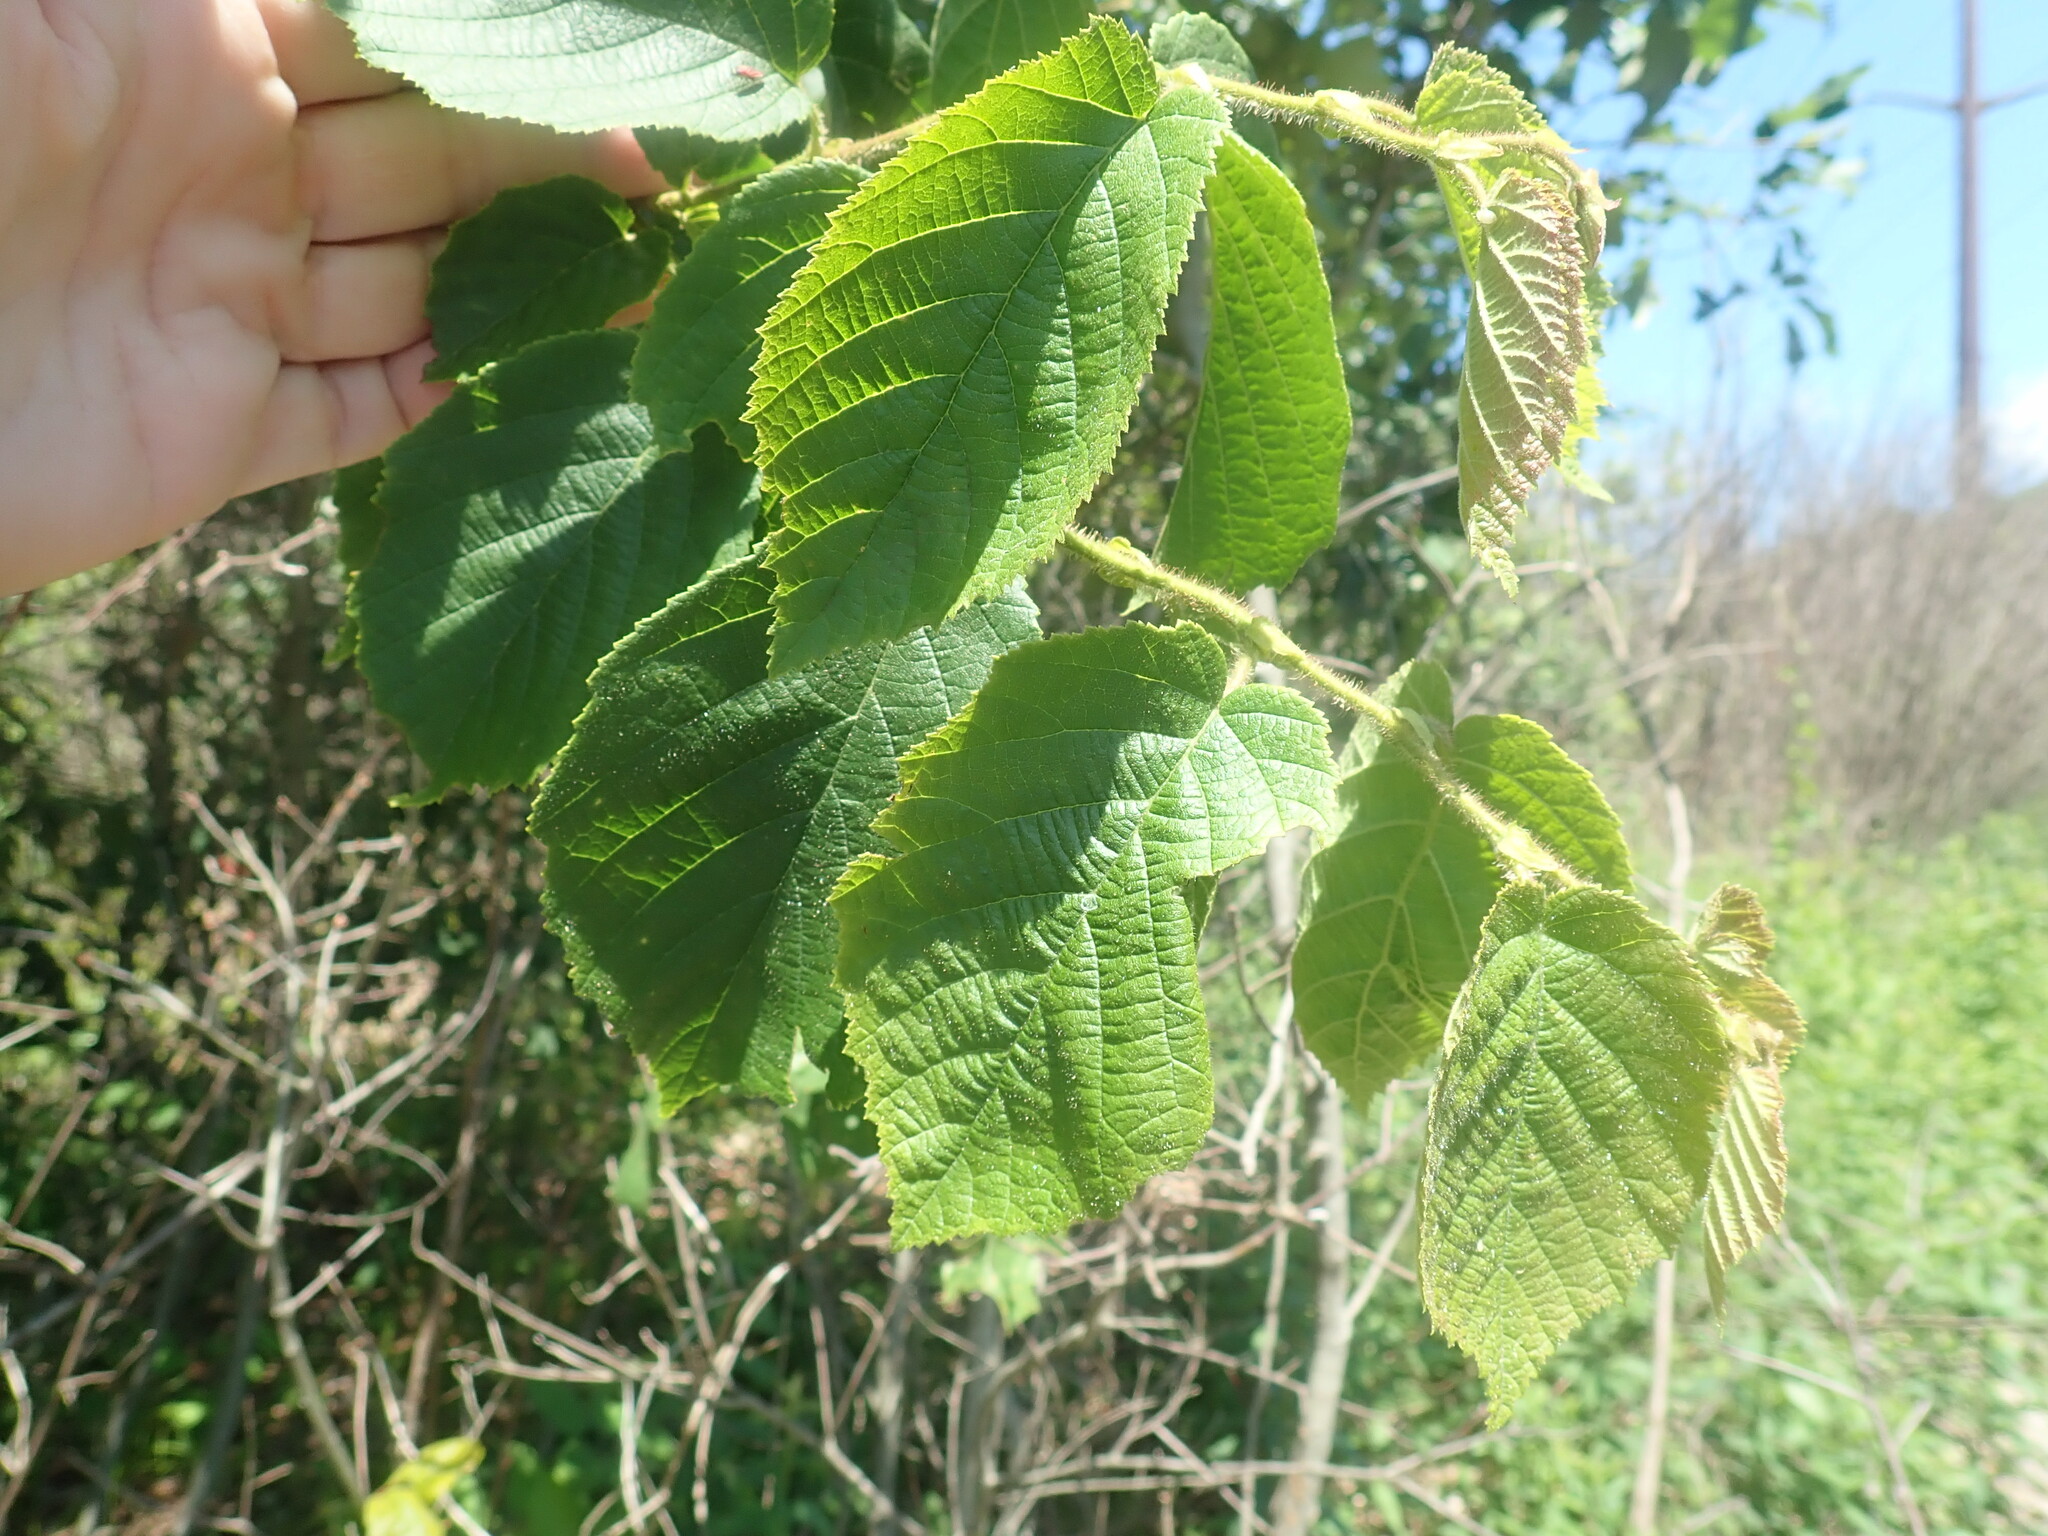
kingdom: Plantae
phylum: Tracheophyta
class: Magnoliopsida
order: Fagales
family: Betulaceae
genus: Corylus
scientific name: Corylus americana
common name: American hazel
